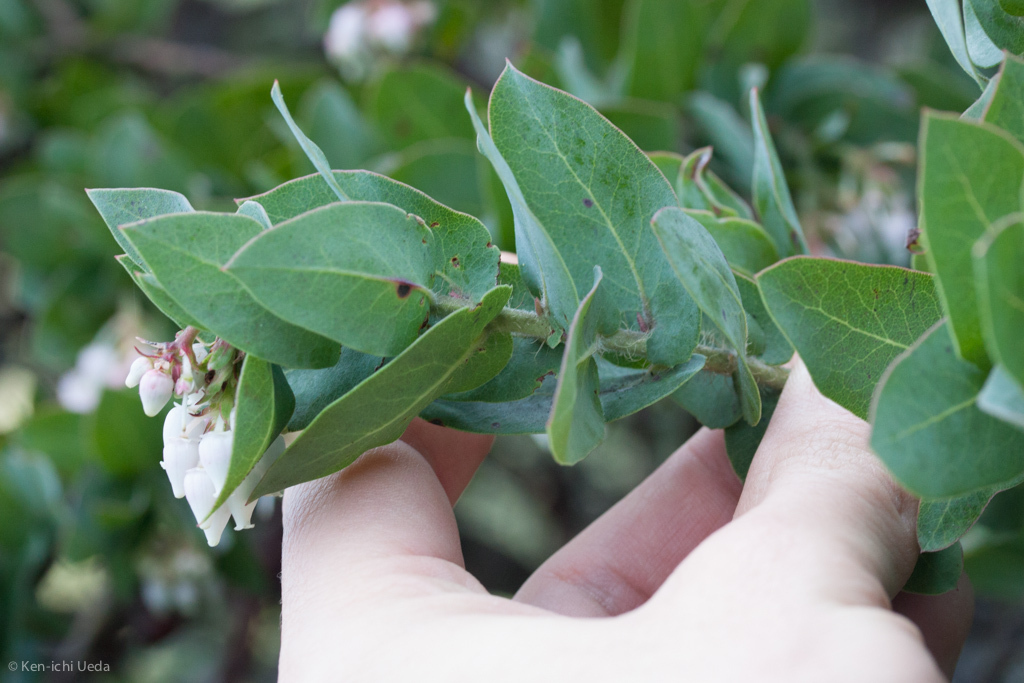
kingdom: Plantae
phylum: Tracheophyta
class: Magnoliopsida
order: Ericales
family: Ericaceae
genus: Arctostaphylos
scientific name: Arctostaphylos pallida
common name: Pallid manzanita
